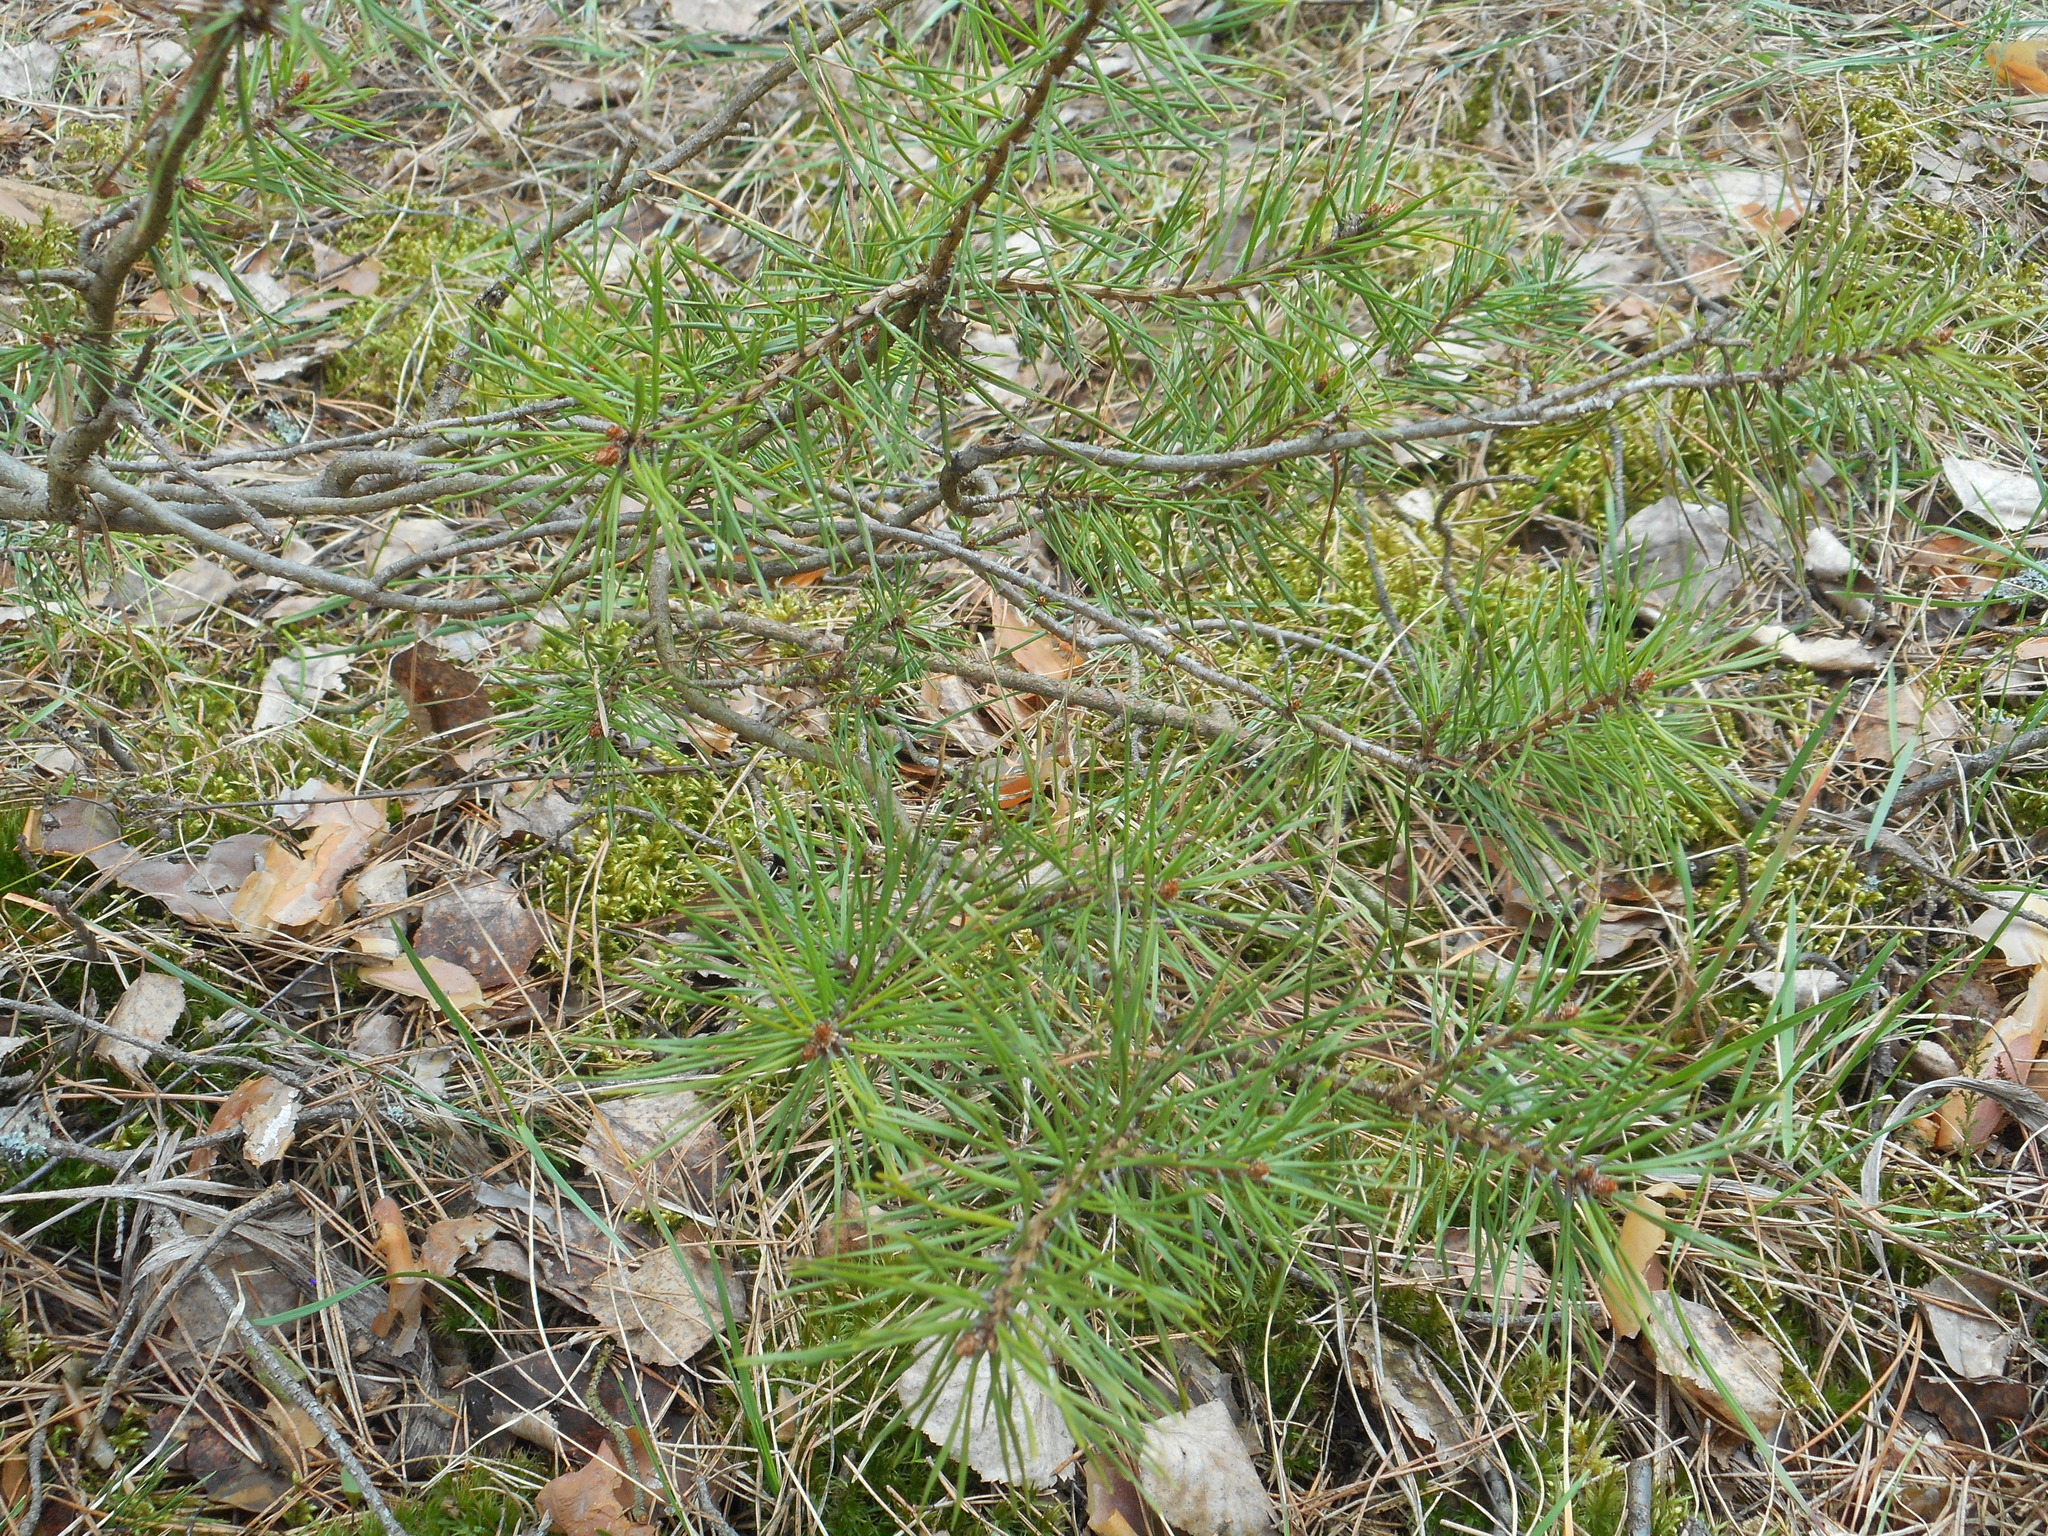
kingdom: Plantae
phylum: Tracheophyta
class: Pinopsida
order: Pinales
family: Pinaceae
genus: Pinus
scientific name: Pinus sylvestris
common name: Scots pine
